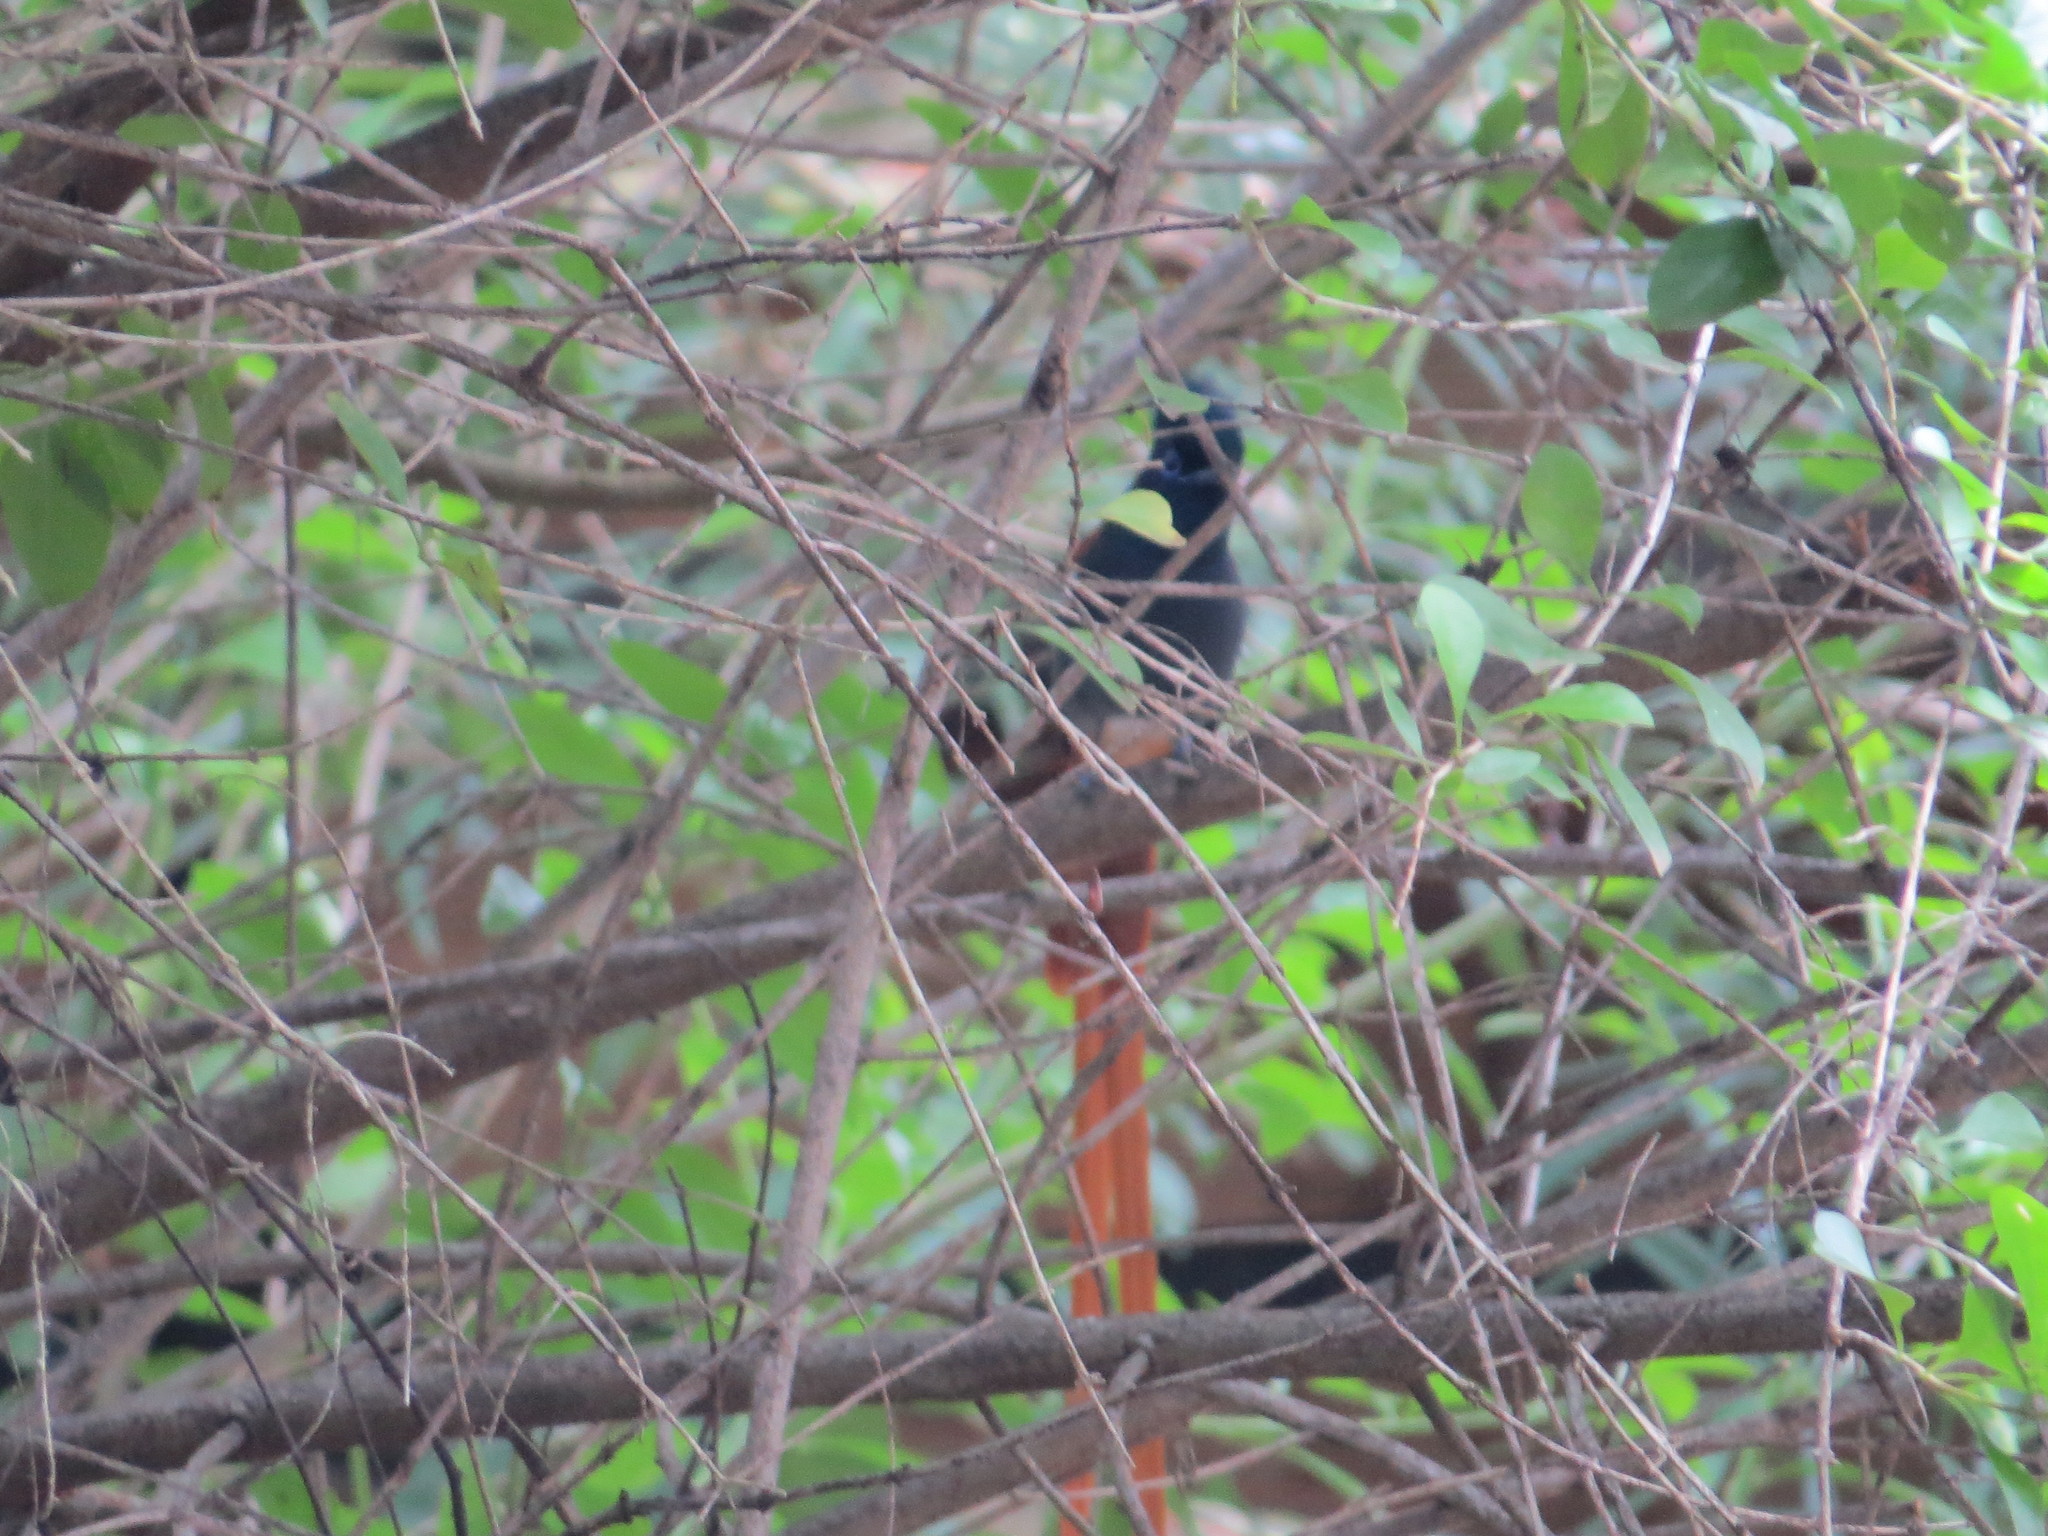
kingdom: Animalia
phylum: Chordata
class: Aves
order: Passeriformes
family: Monarchidae
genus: Terpsiphone
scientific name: Terpsiphone viridis
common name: African paradise flycatcher
